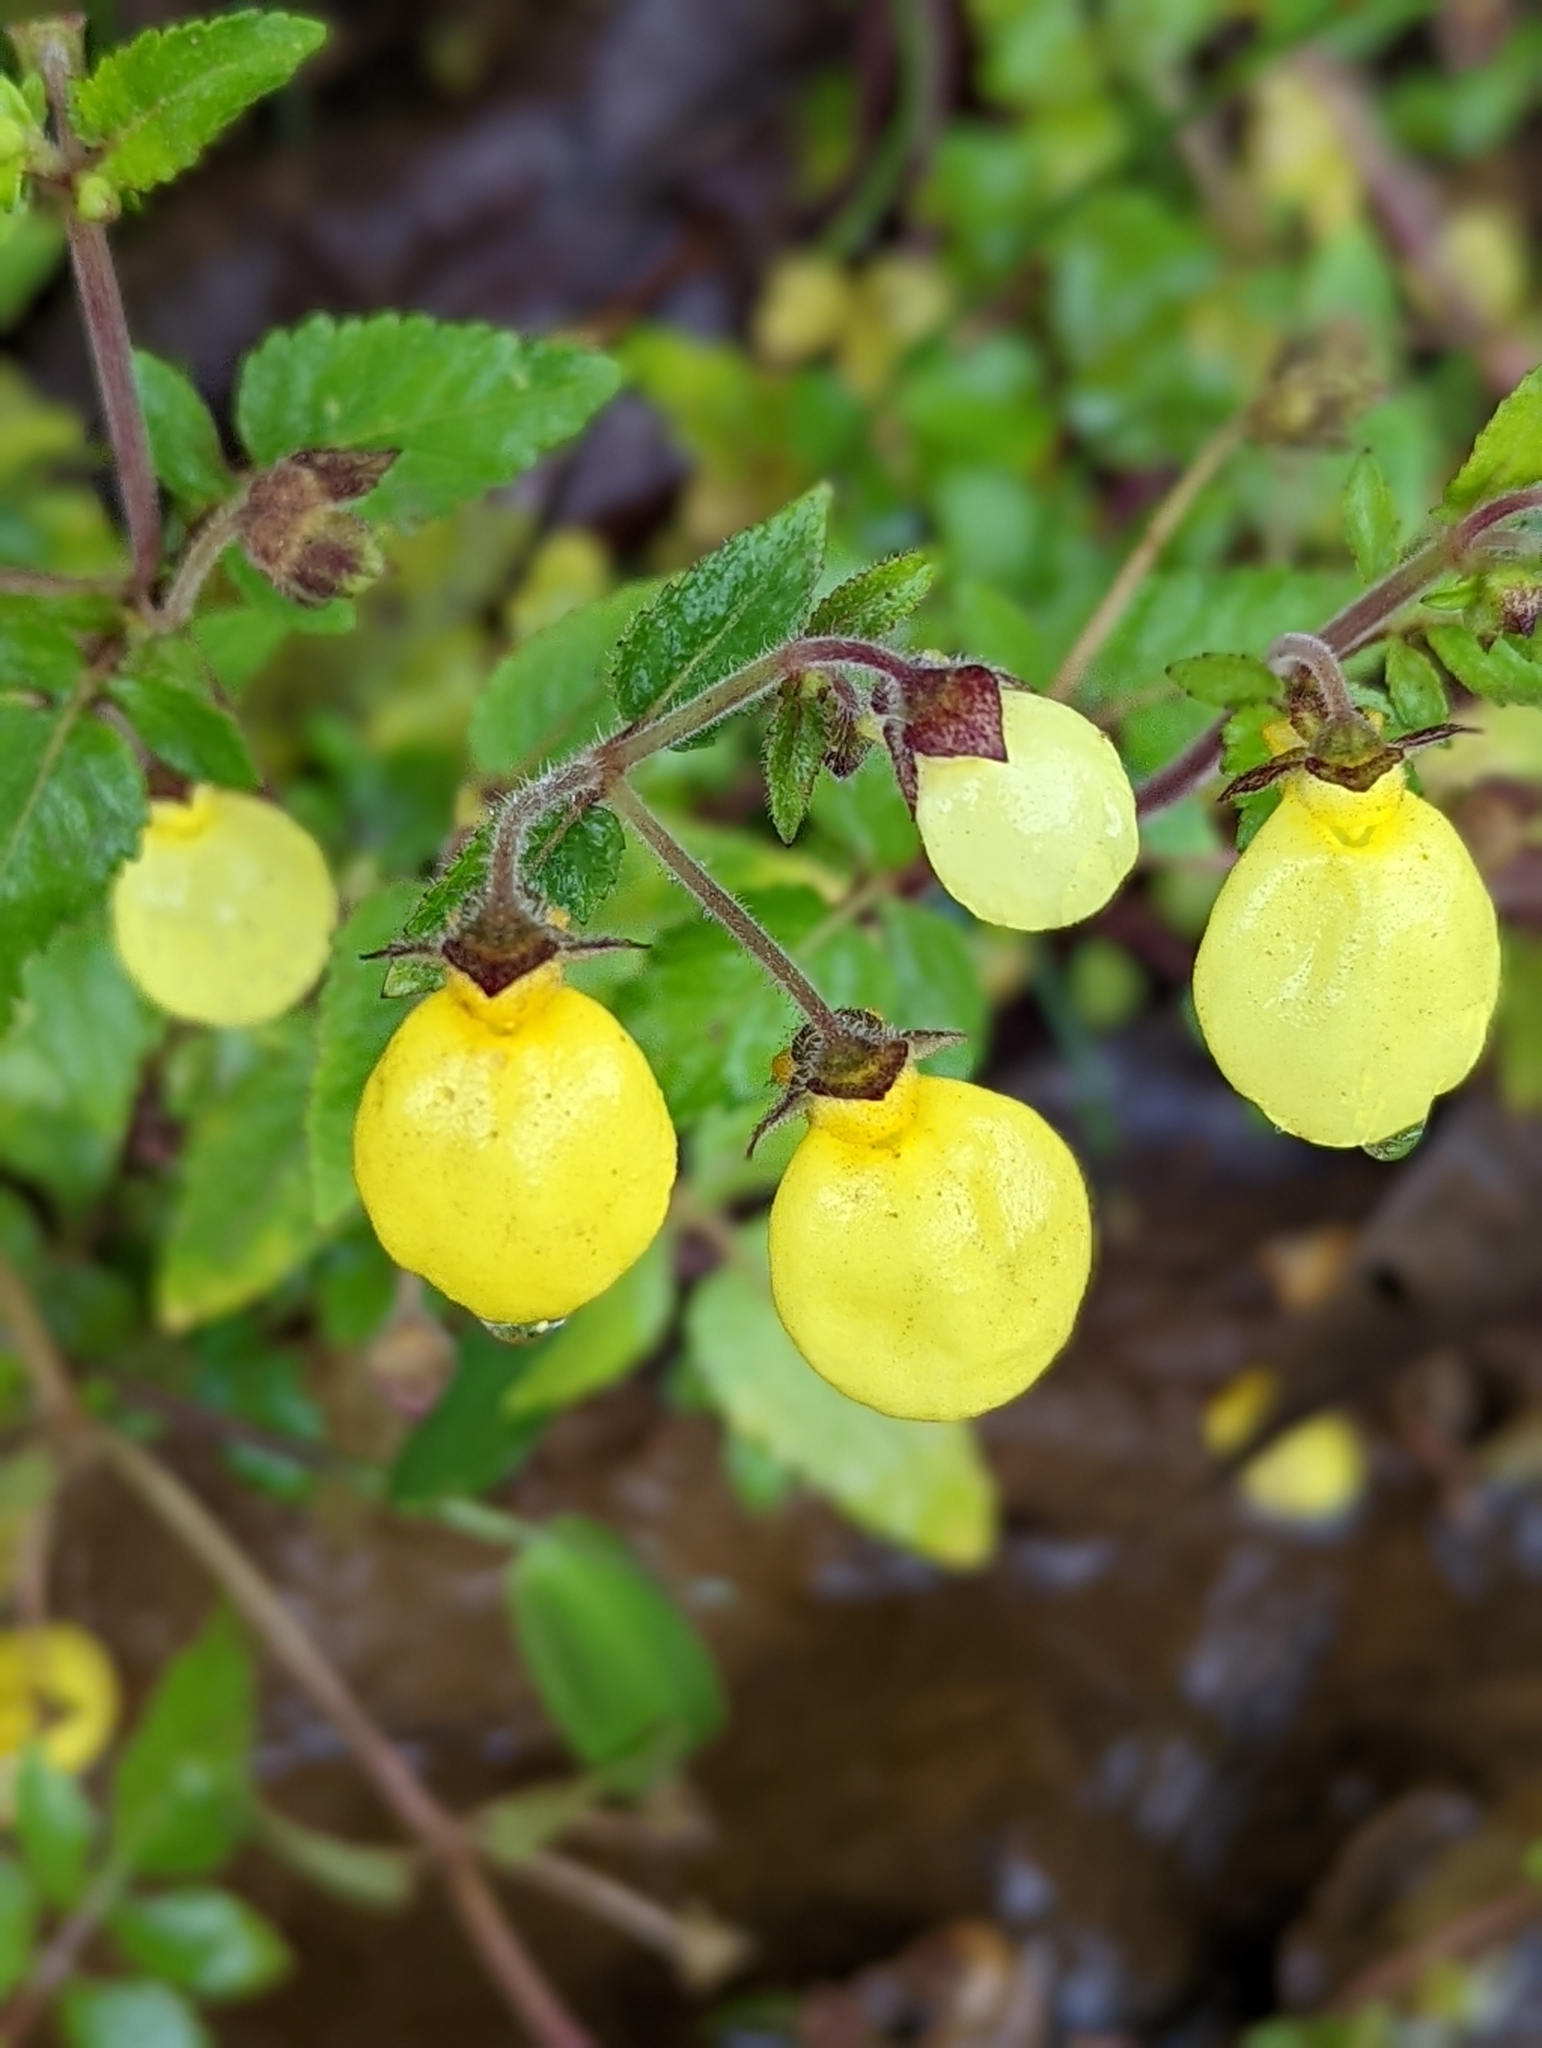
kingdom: Plantae
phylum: Tracheophyta
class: Magnoliopsida
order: Lamiales
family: Calceolariaceae
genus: Calceolaria
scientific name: Calceolaria tripartita
